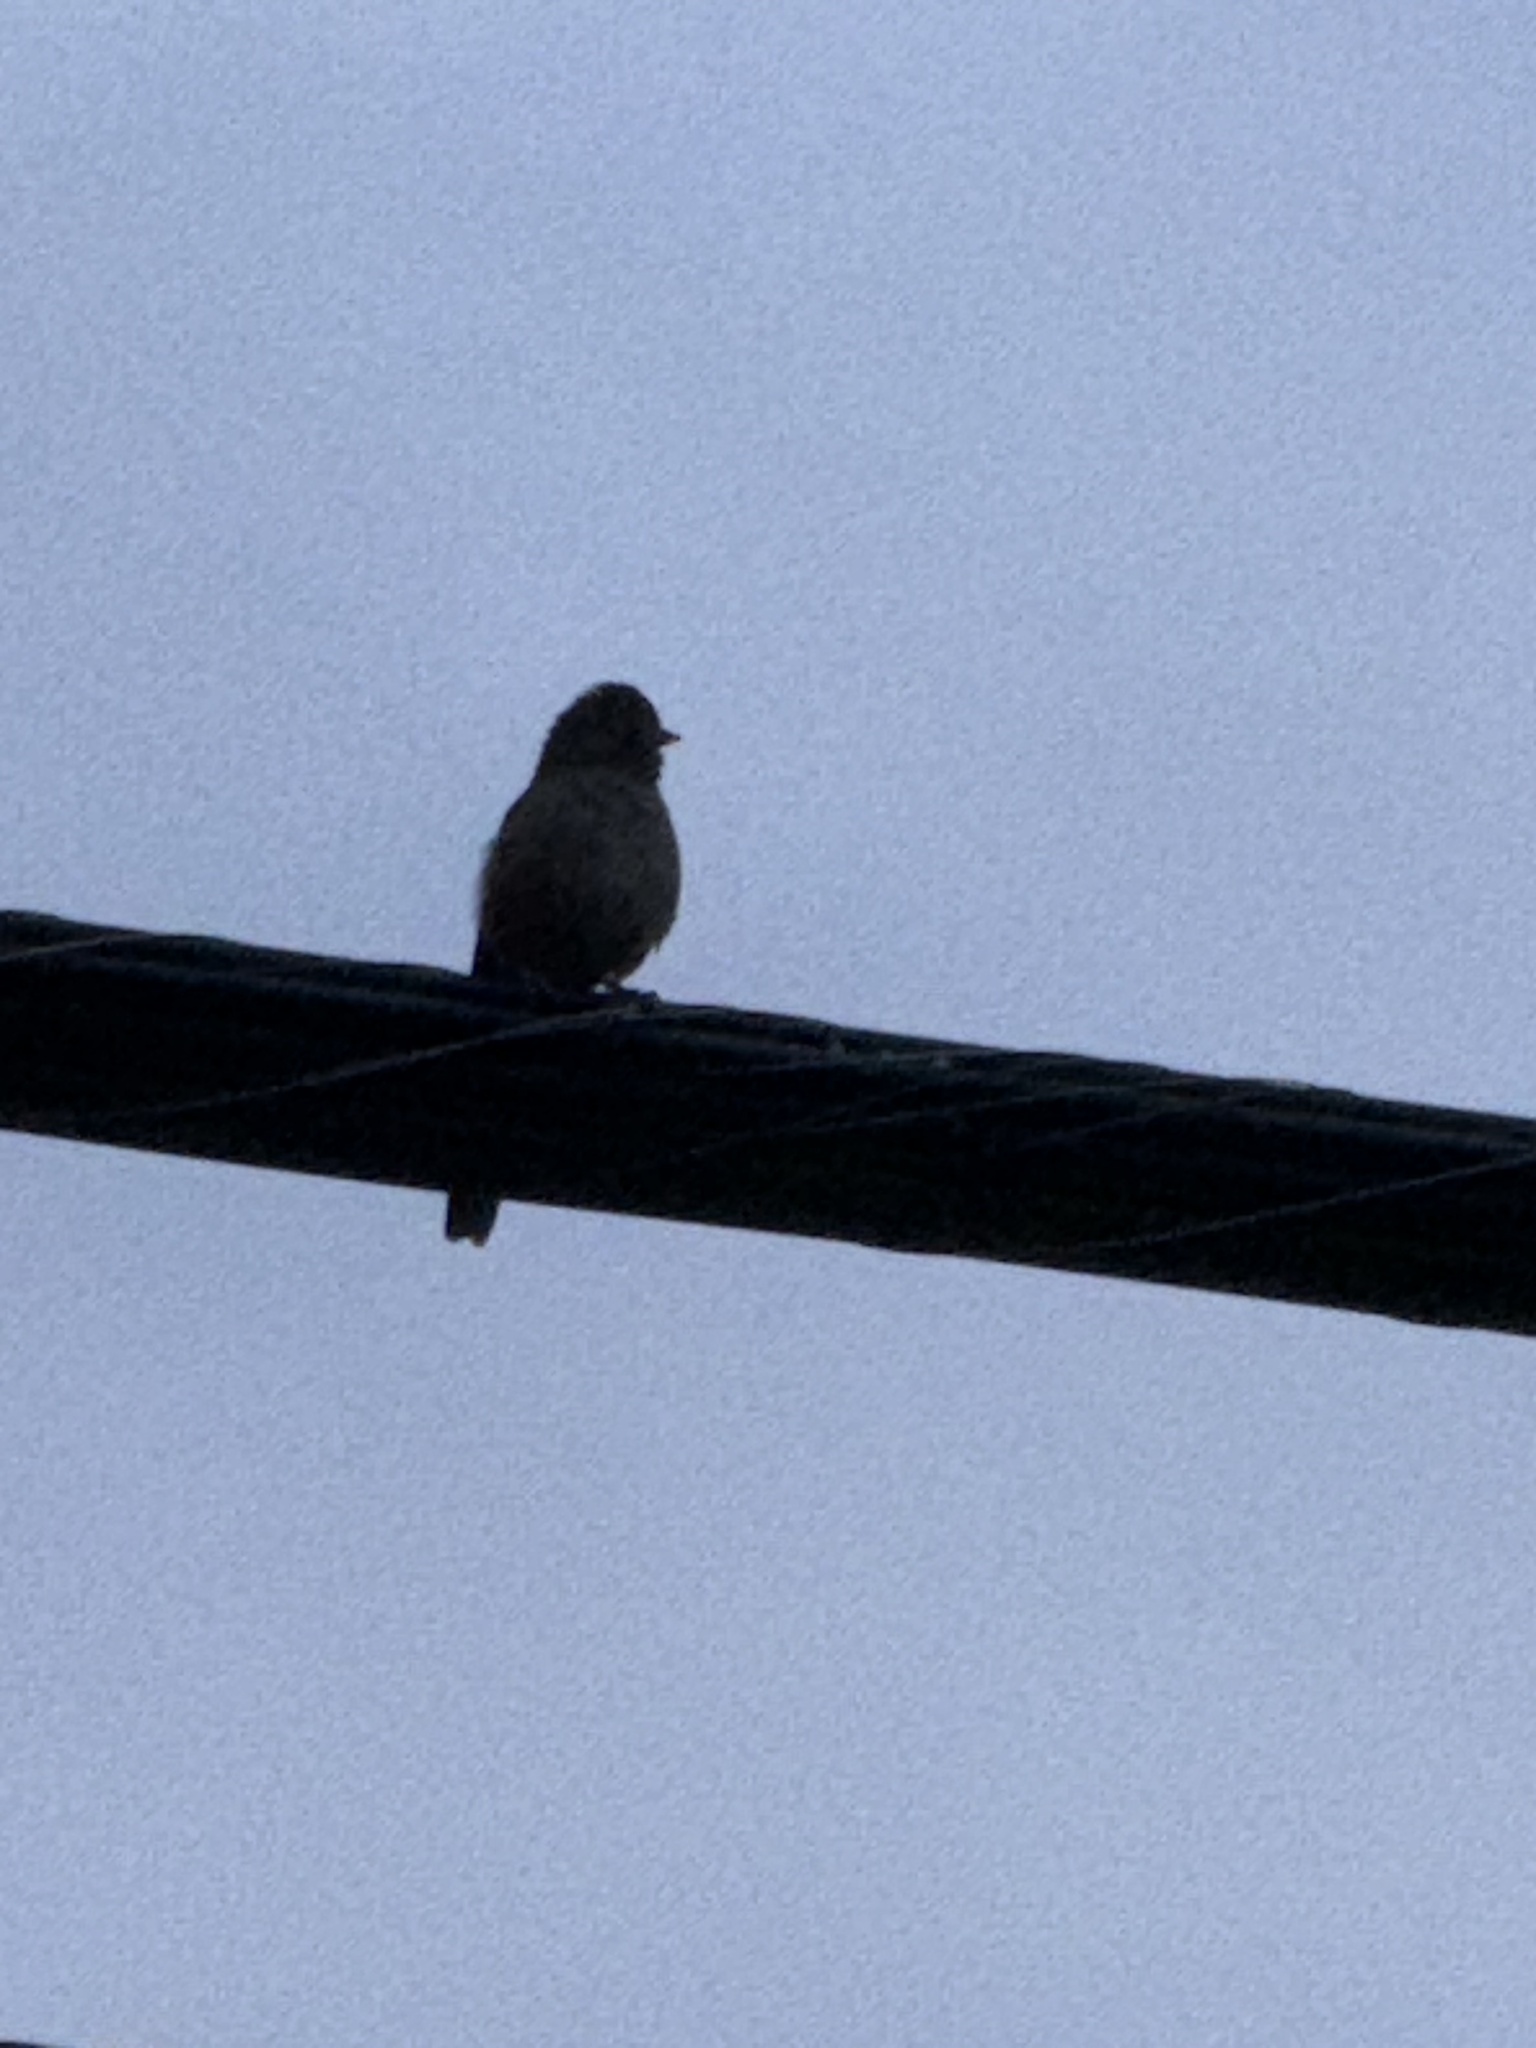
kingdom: Animalia
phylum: Chordata
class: Aves
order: Passeriformes
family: Passerellidae
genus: Melozone
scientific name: Melozone crissalis
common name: California towhee
